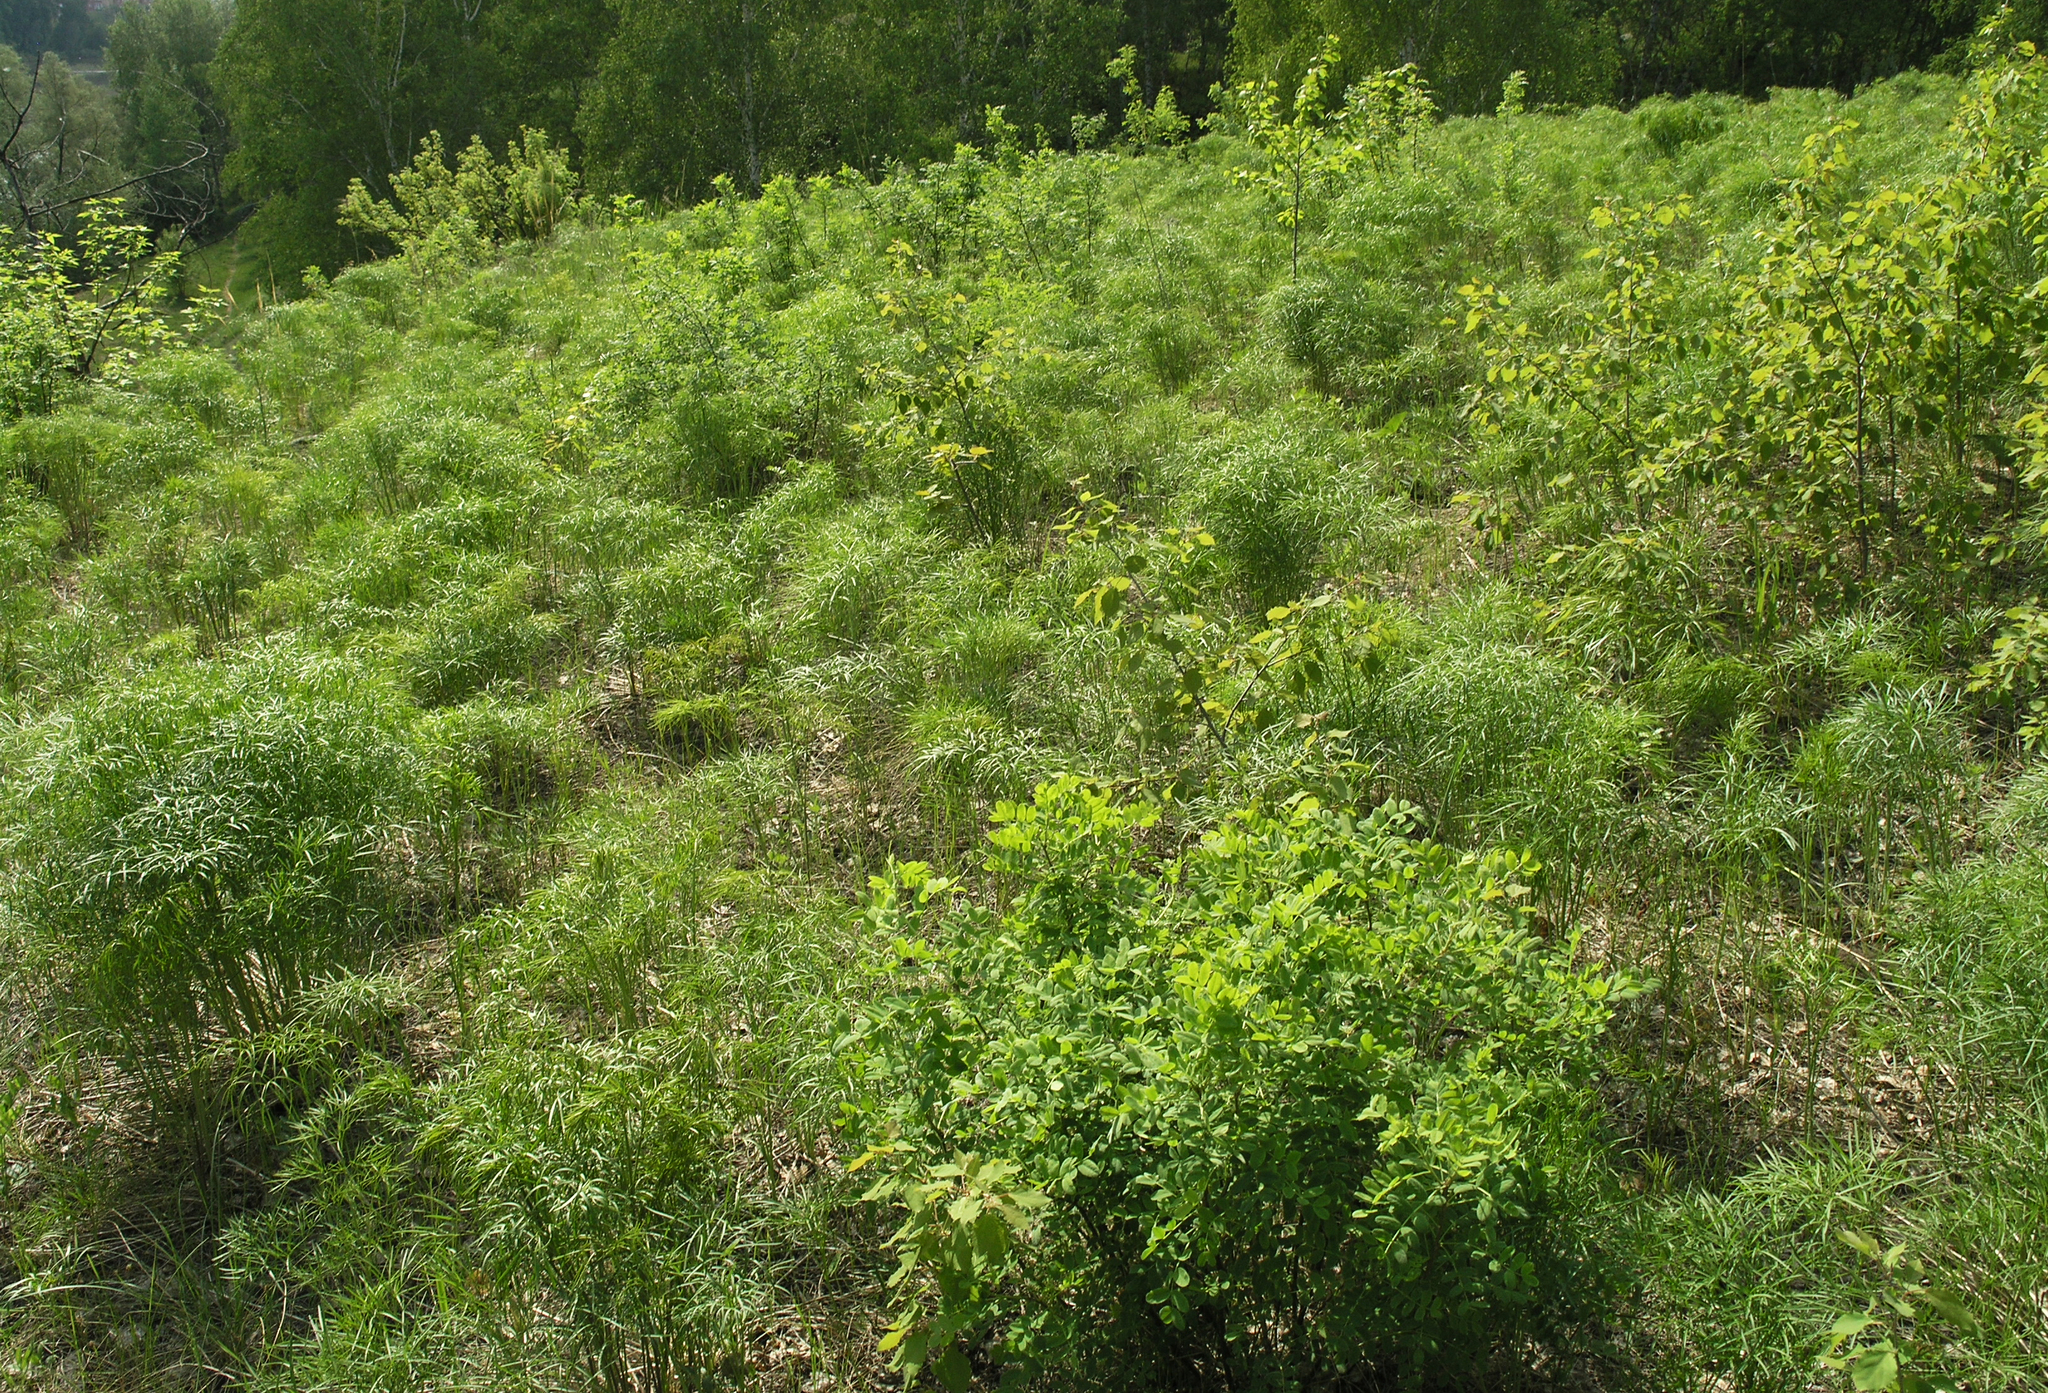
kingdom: Plantae
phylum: Tracheophyta
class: Magnoliopsida
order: Apiales
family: Apiaceae
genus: Peucedanum
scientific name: Peucedanum morisonii
